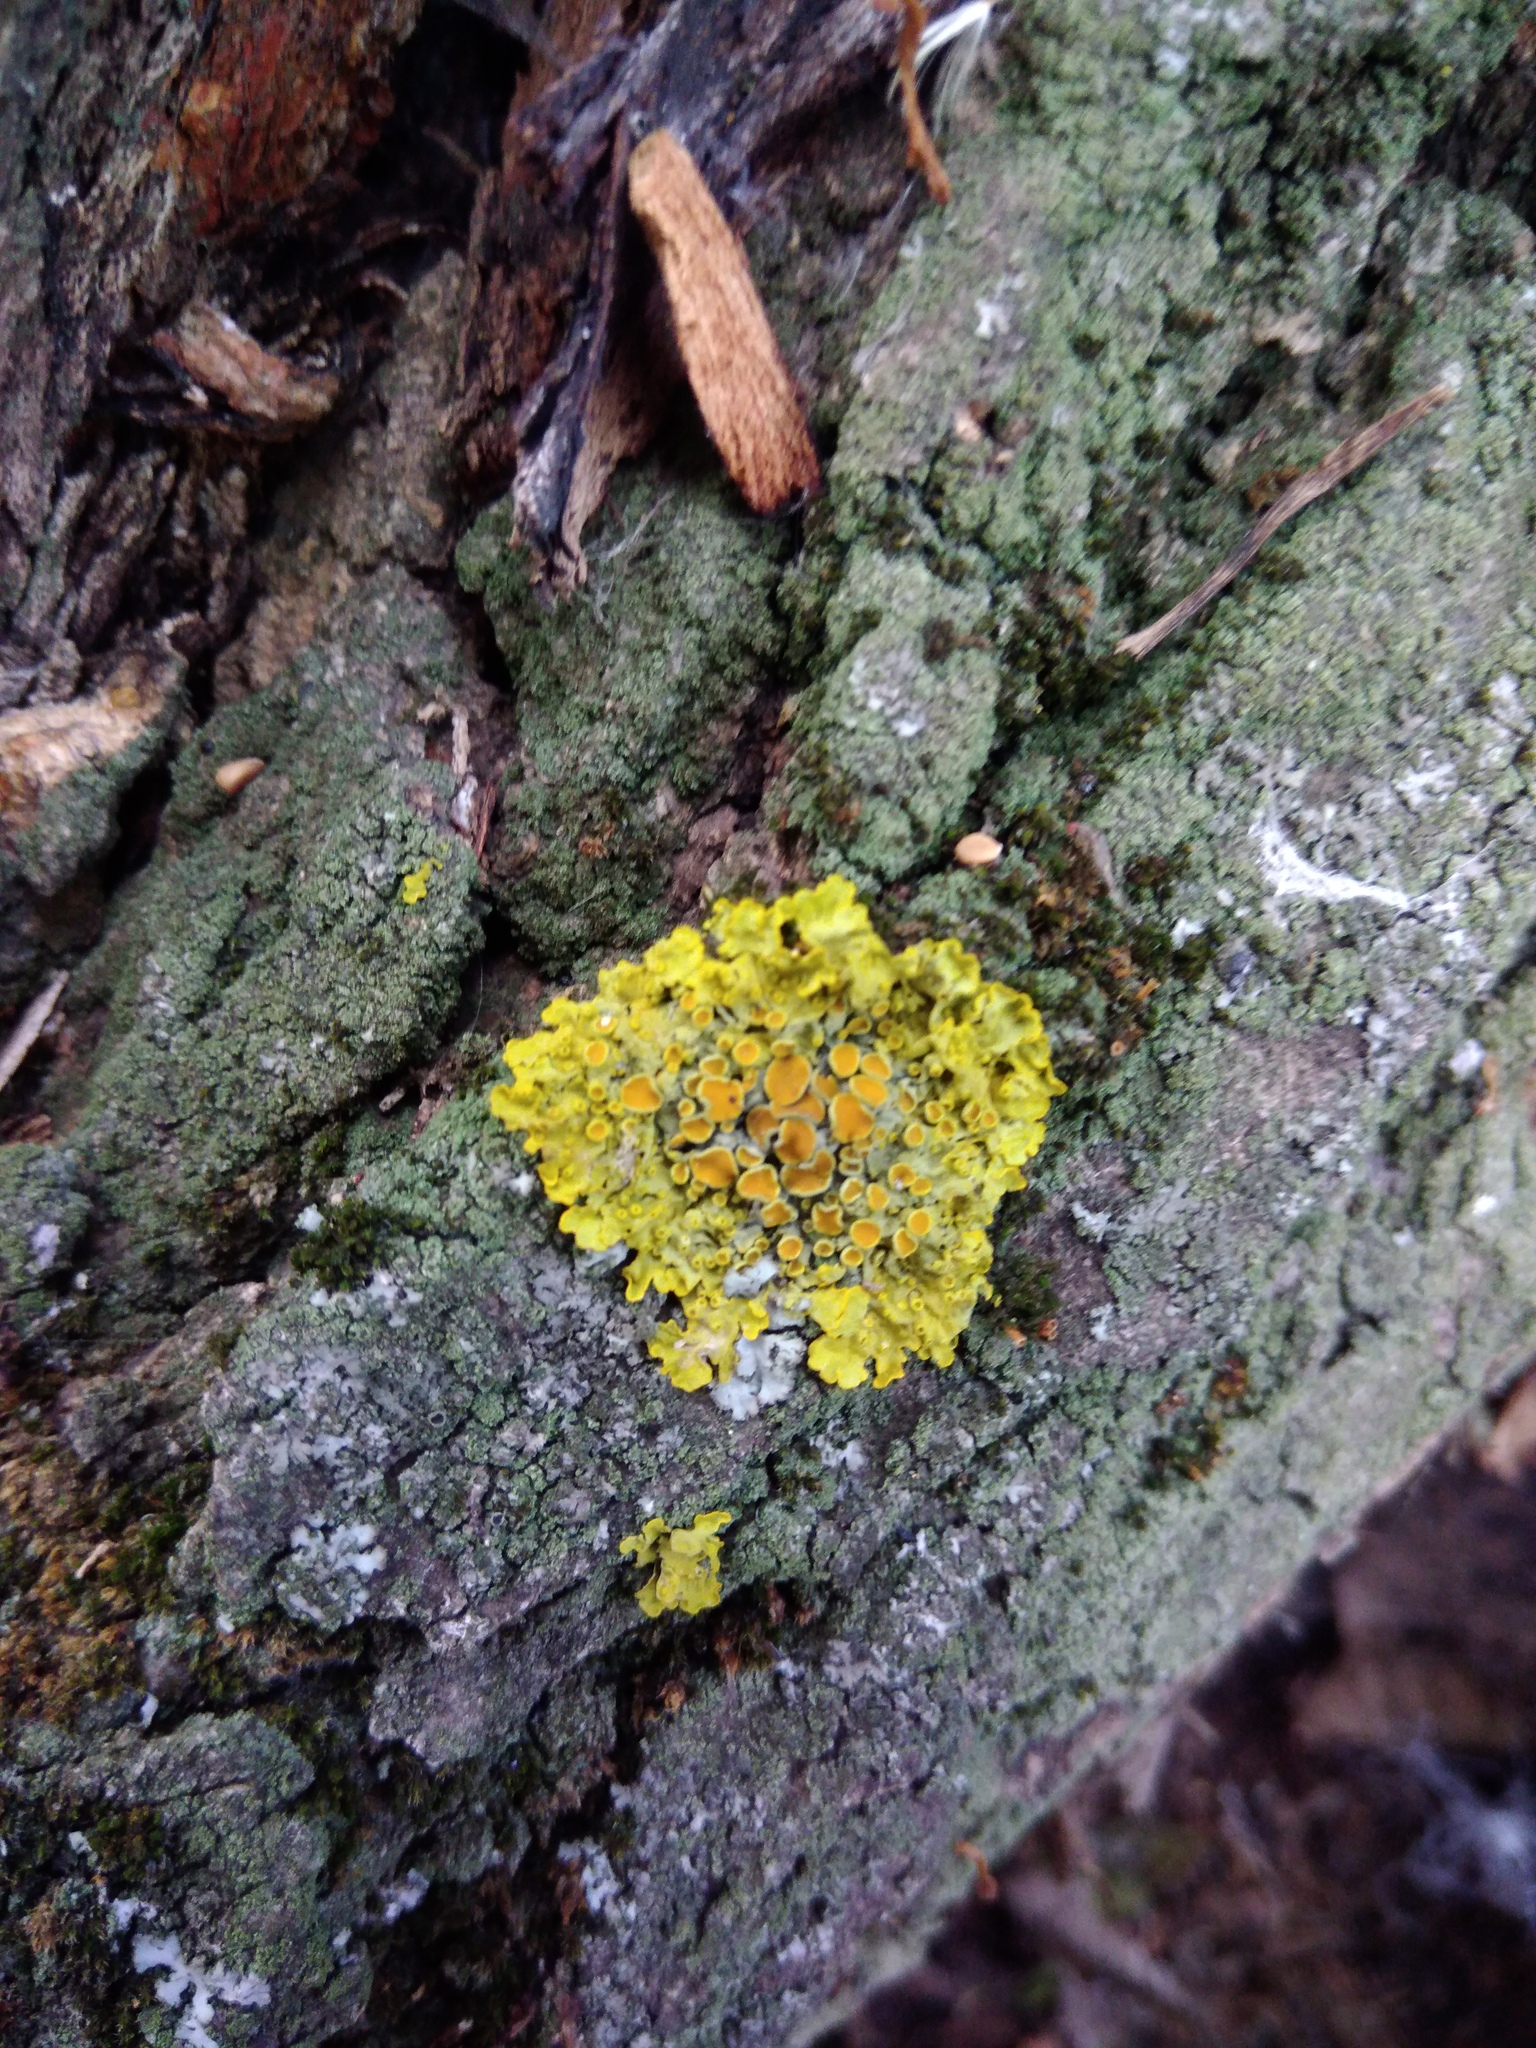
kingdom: Fungi
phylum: Ascomycota
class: Lecanoromycetes
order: Teloschistales
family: Teloschistaceae
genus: Xanthoria
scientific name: Xanthoria parietina
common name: Common orange lichen
